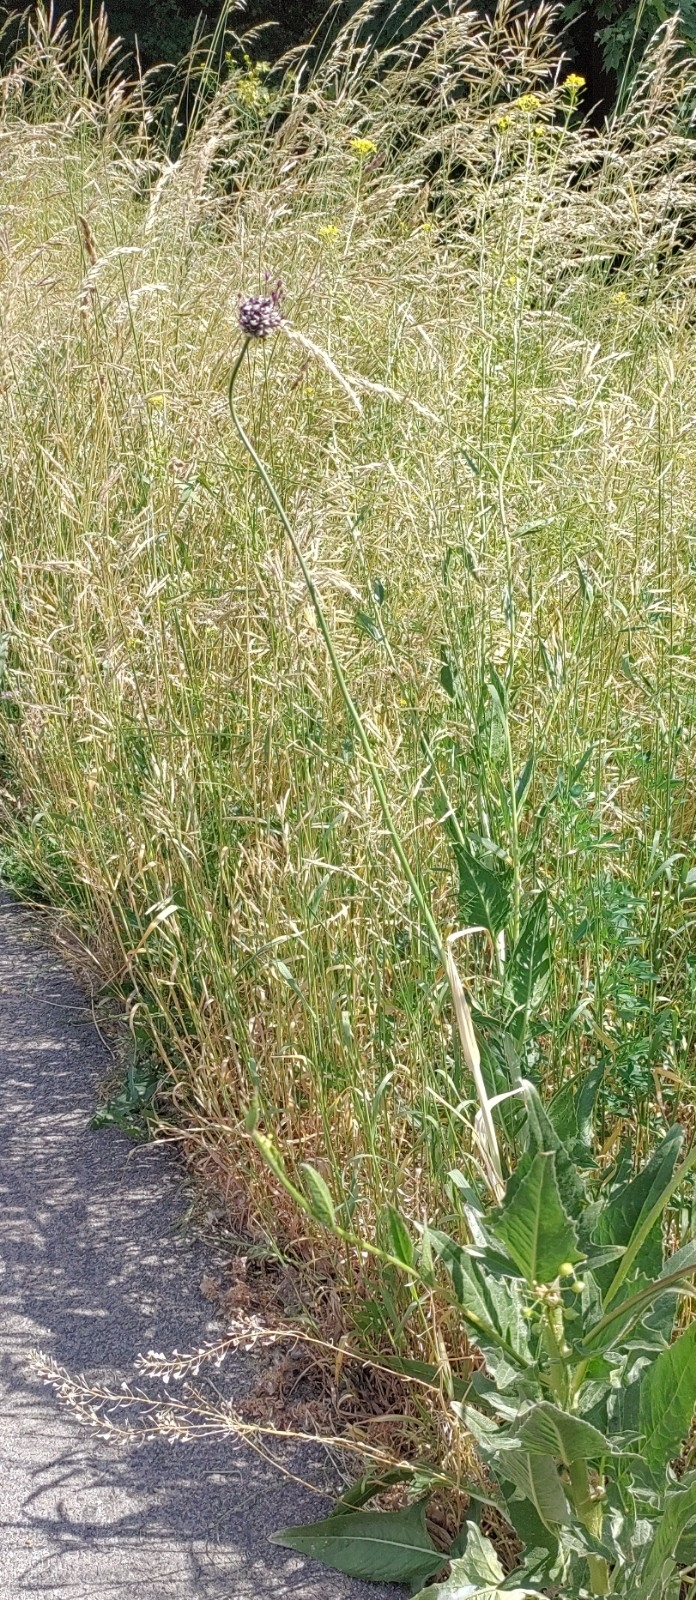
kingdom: Plantae
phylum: Tracheophyta
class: Liliopsida
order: Asparagales
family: Amaryllidaceae
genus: Allium
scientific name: Allium scorodoprasum
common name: Sand leek
